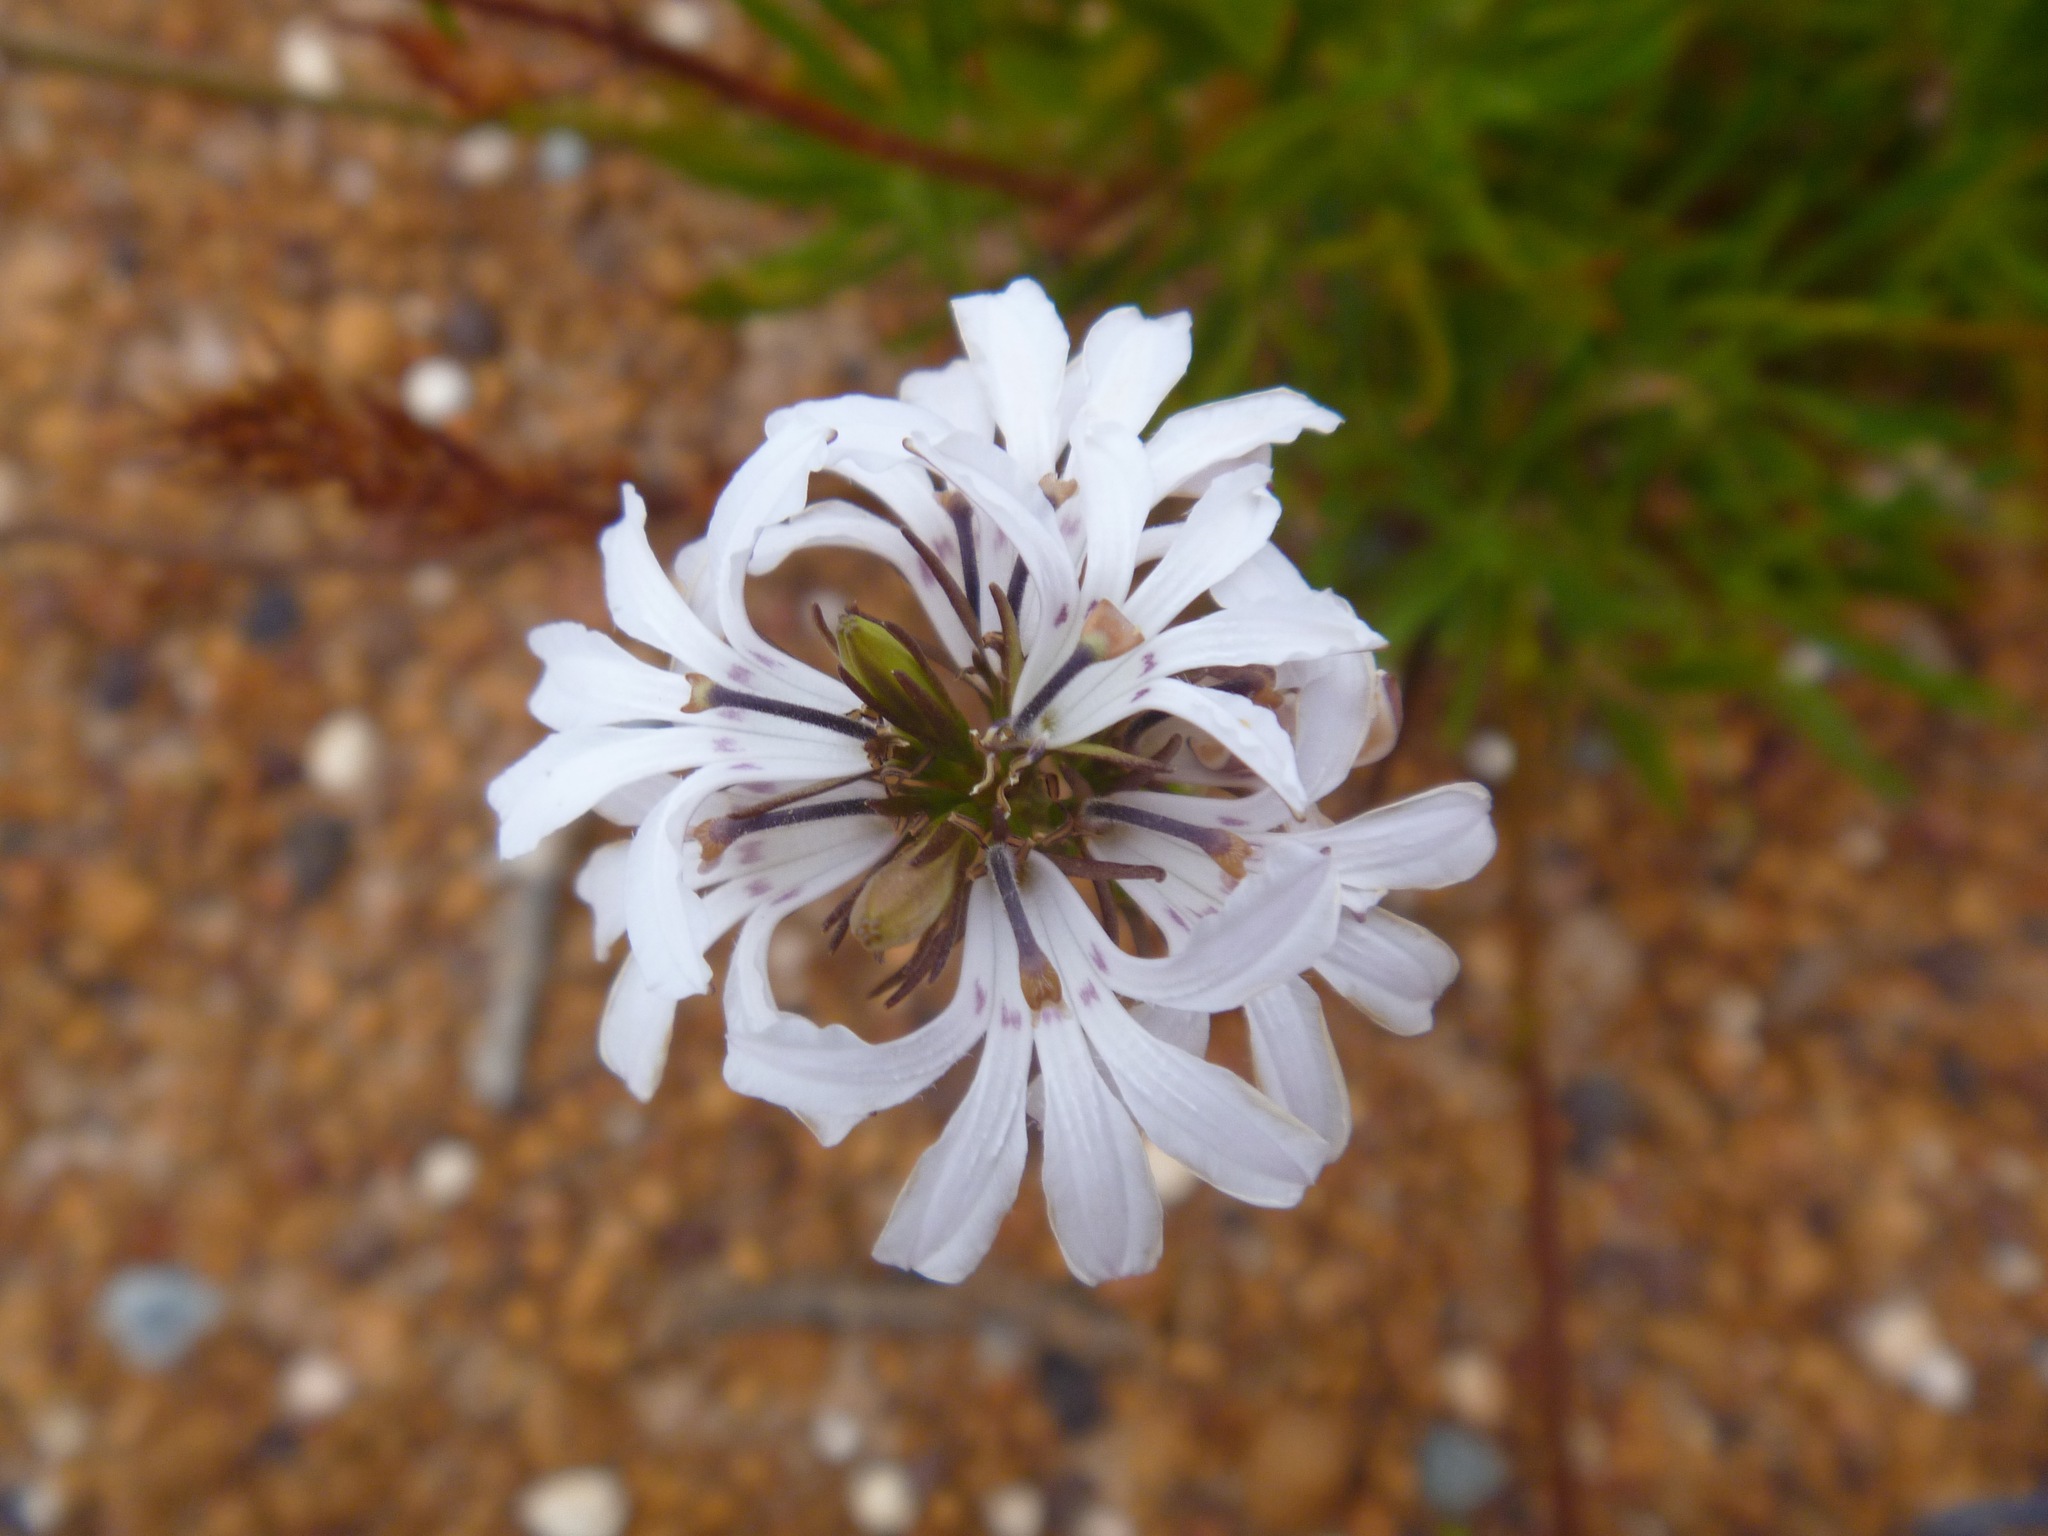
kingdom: Plantae
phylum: Tracheophyta
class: Magnoliopsida
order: Asterales
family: Goodeniaceae
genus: Goodenia
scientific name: Goodenia scapigera
